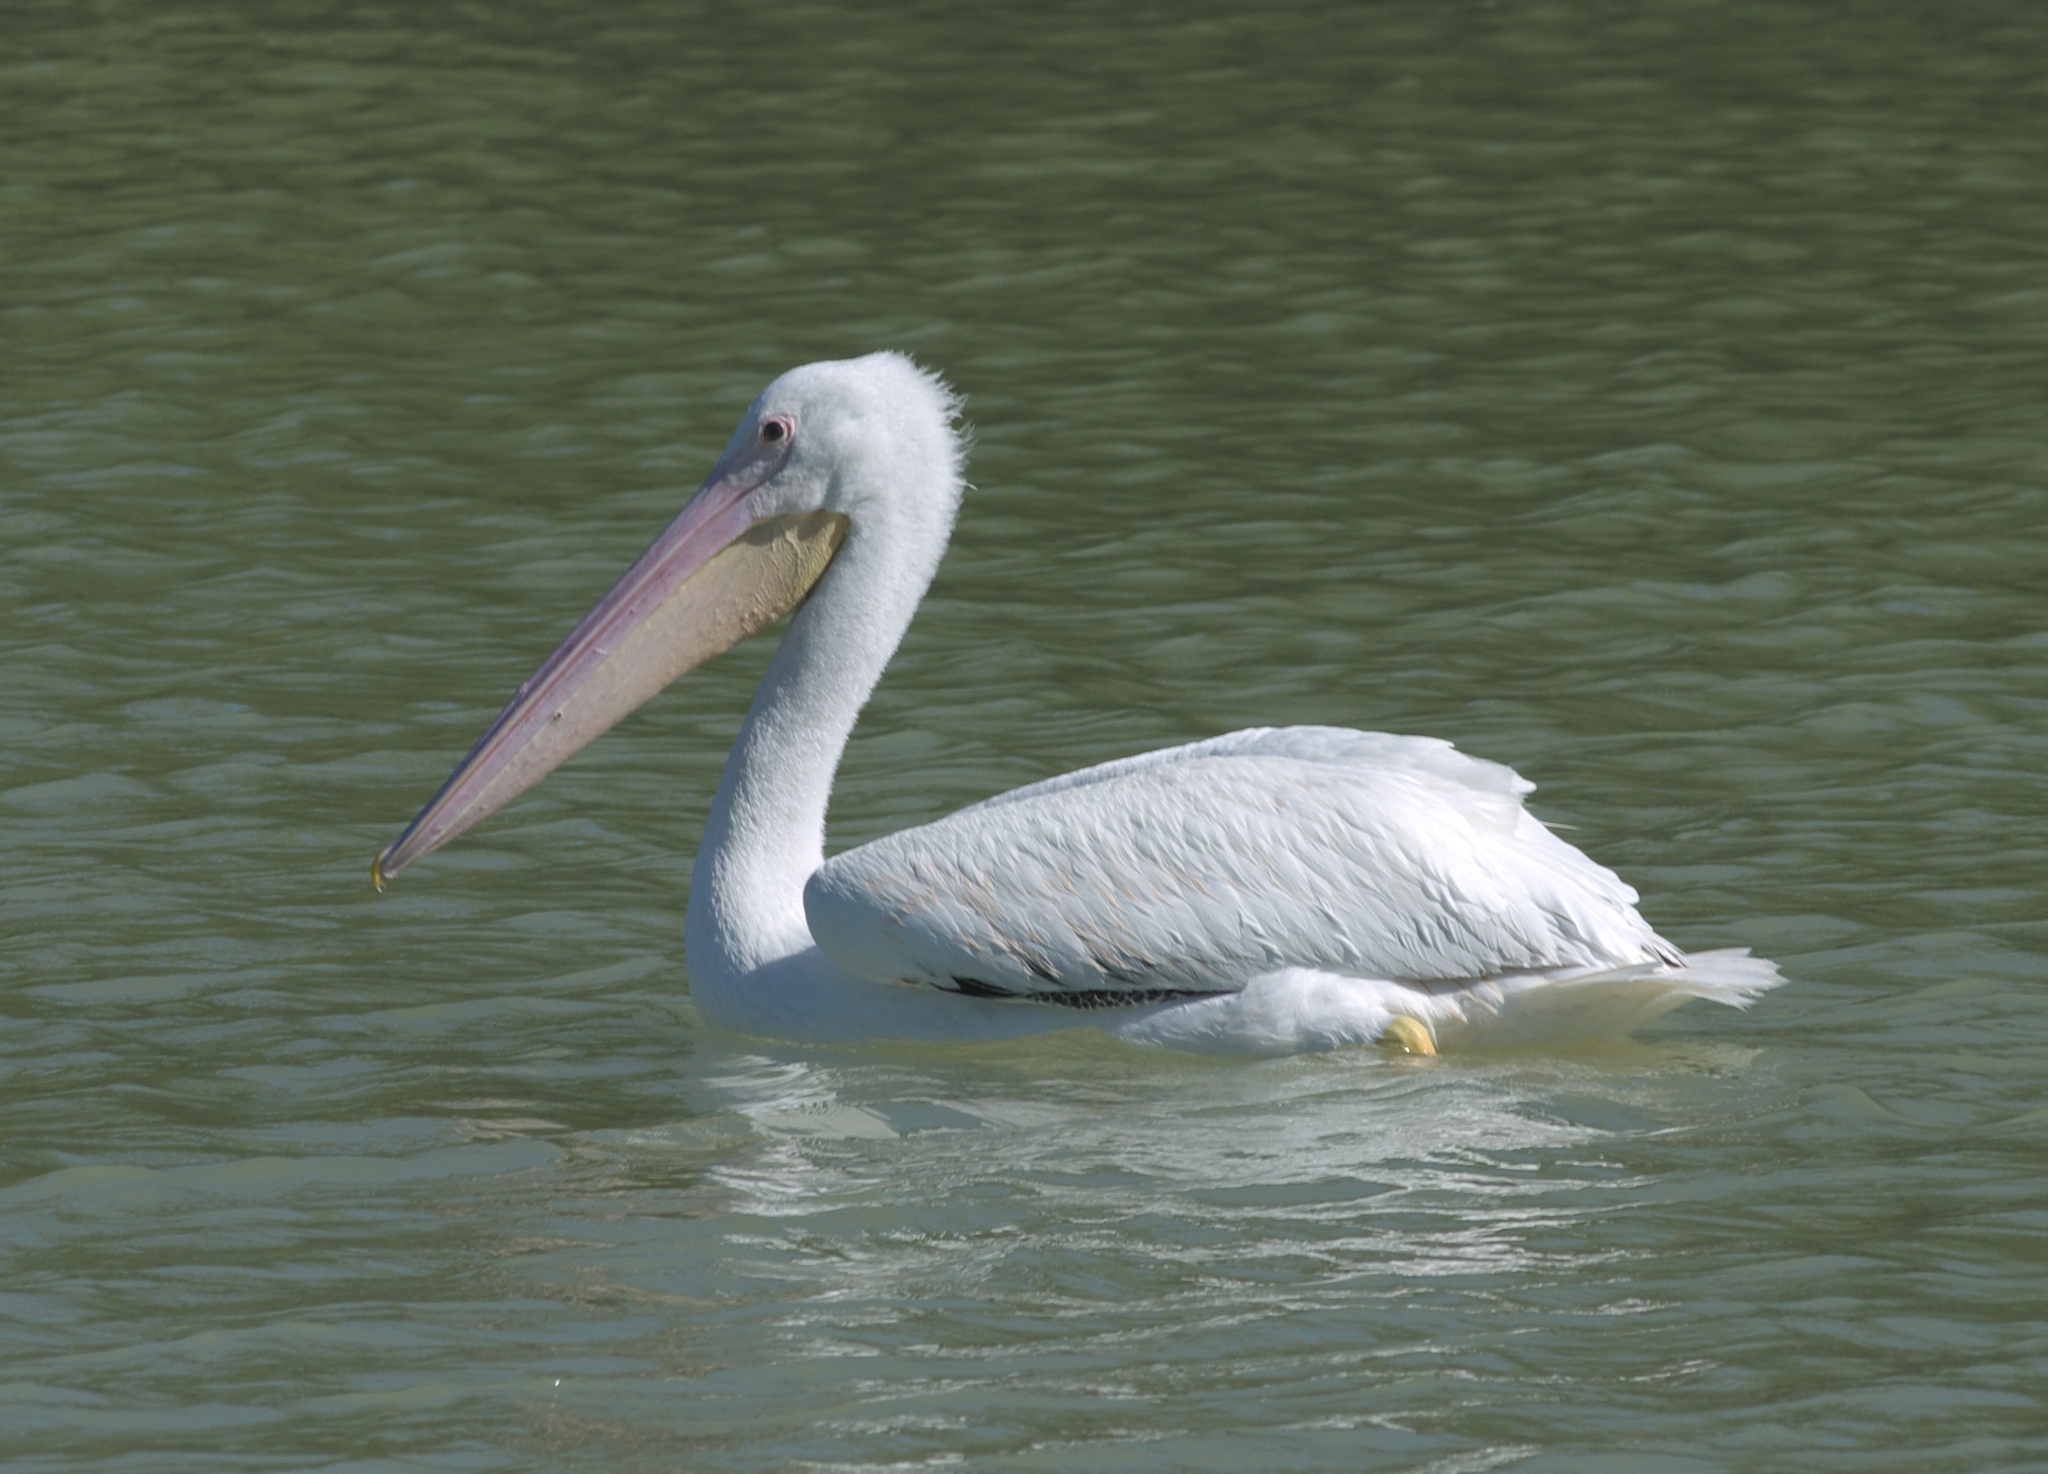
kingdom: Animalia
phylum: Chordata
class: Aves
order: Pelecaniformes
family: Pelecanidae
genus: Pelecanus
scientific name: Pelecanus erythrorhynchos
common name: American white pelican
